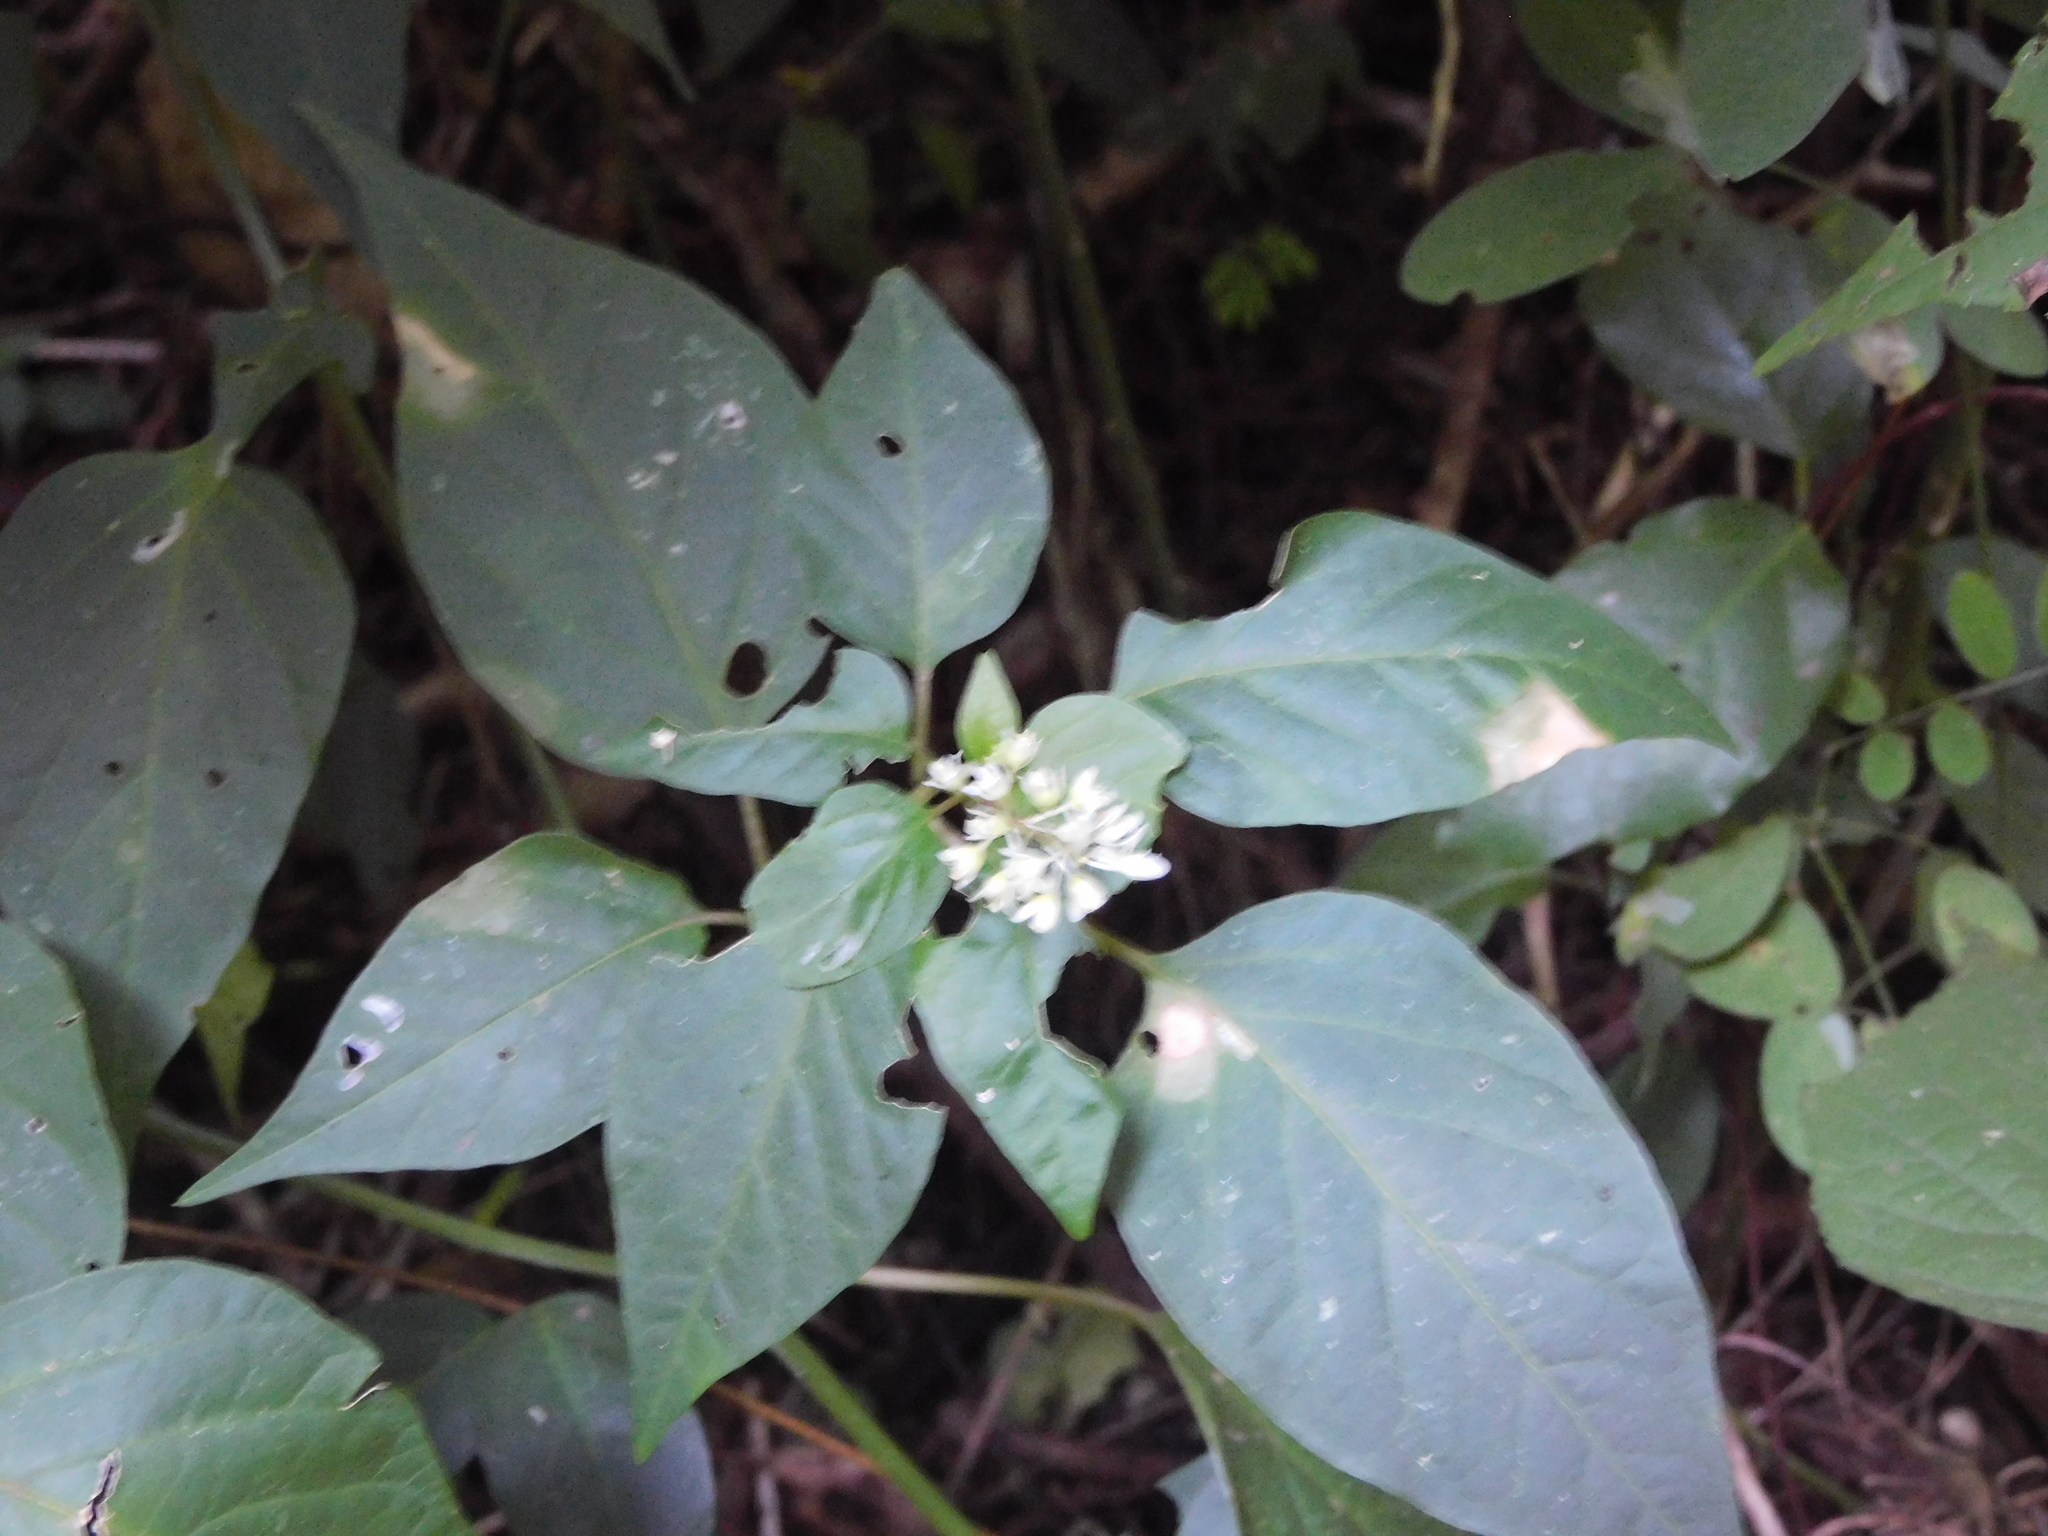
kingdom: Plantae
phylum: Tracheophyta
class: Magnoliopsida
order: Caryophyllales
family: Phytolaccaceae
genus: Rivina
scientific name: Rivina humilis
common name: Rougeplant
